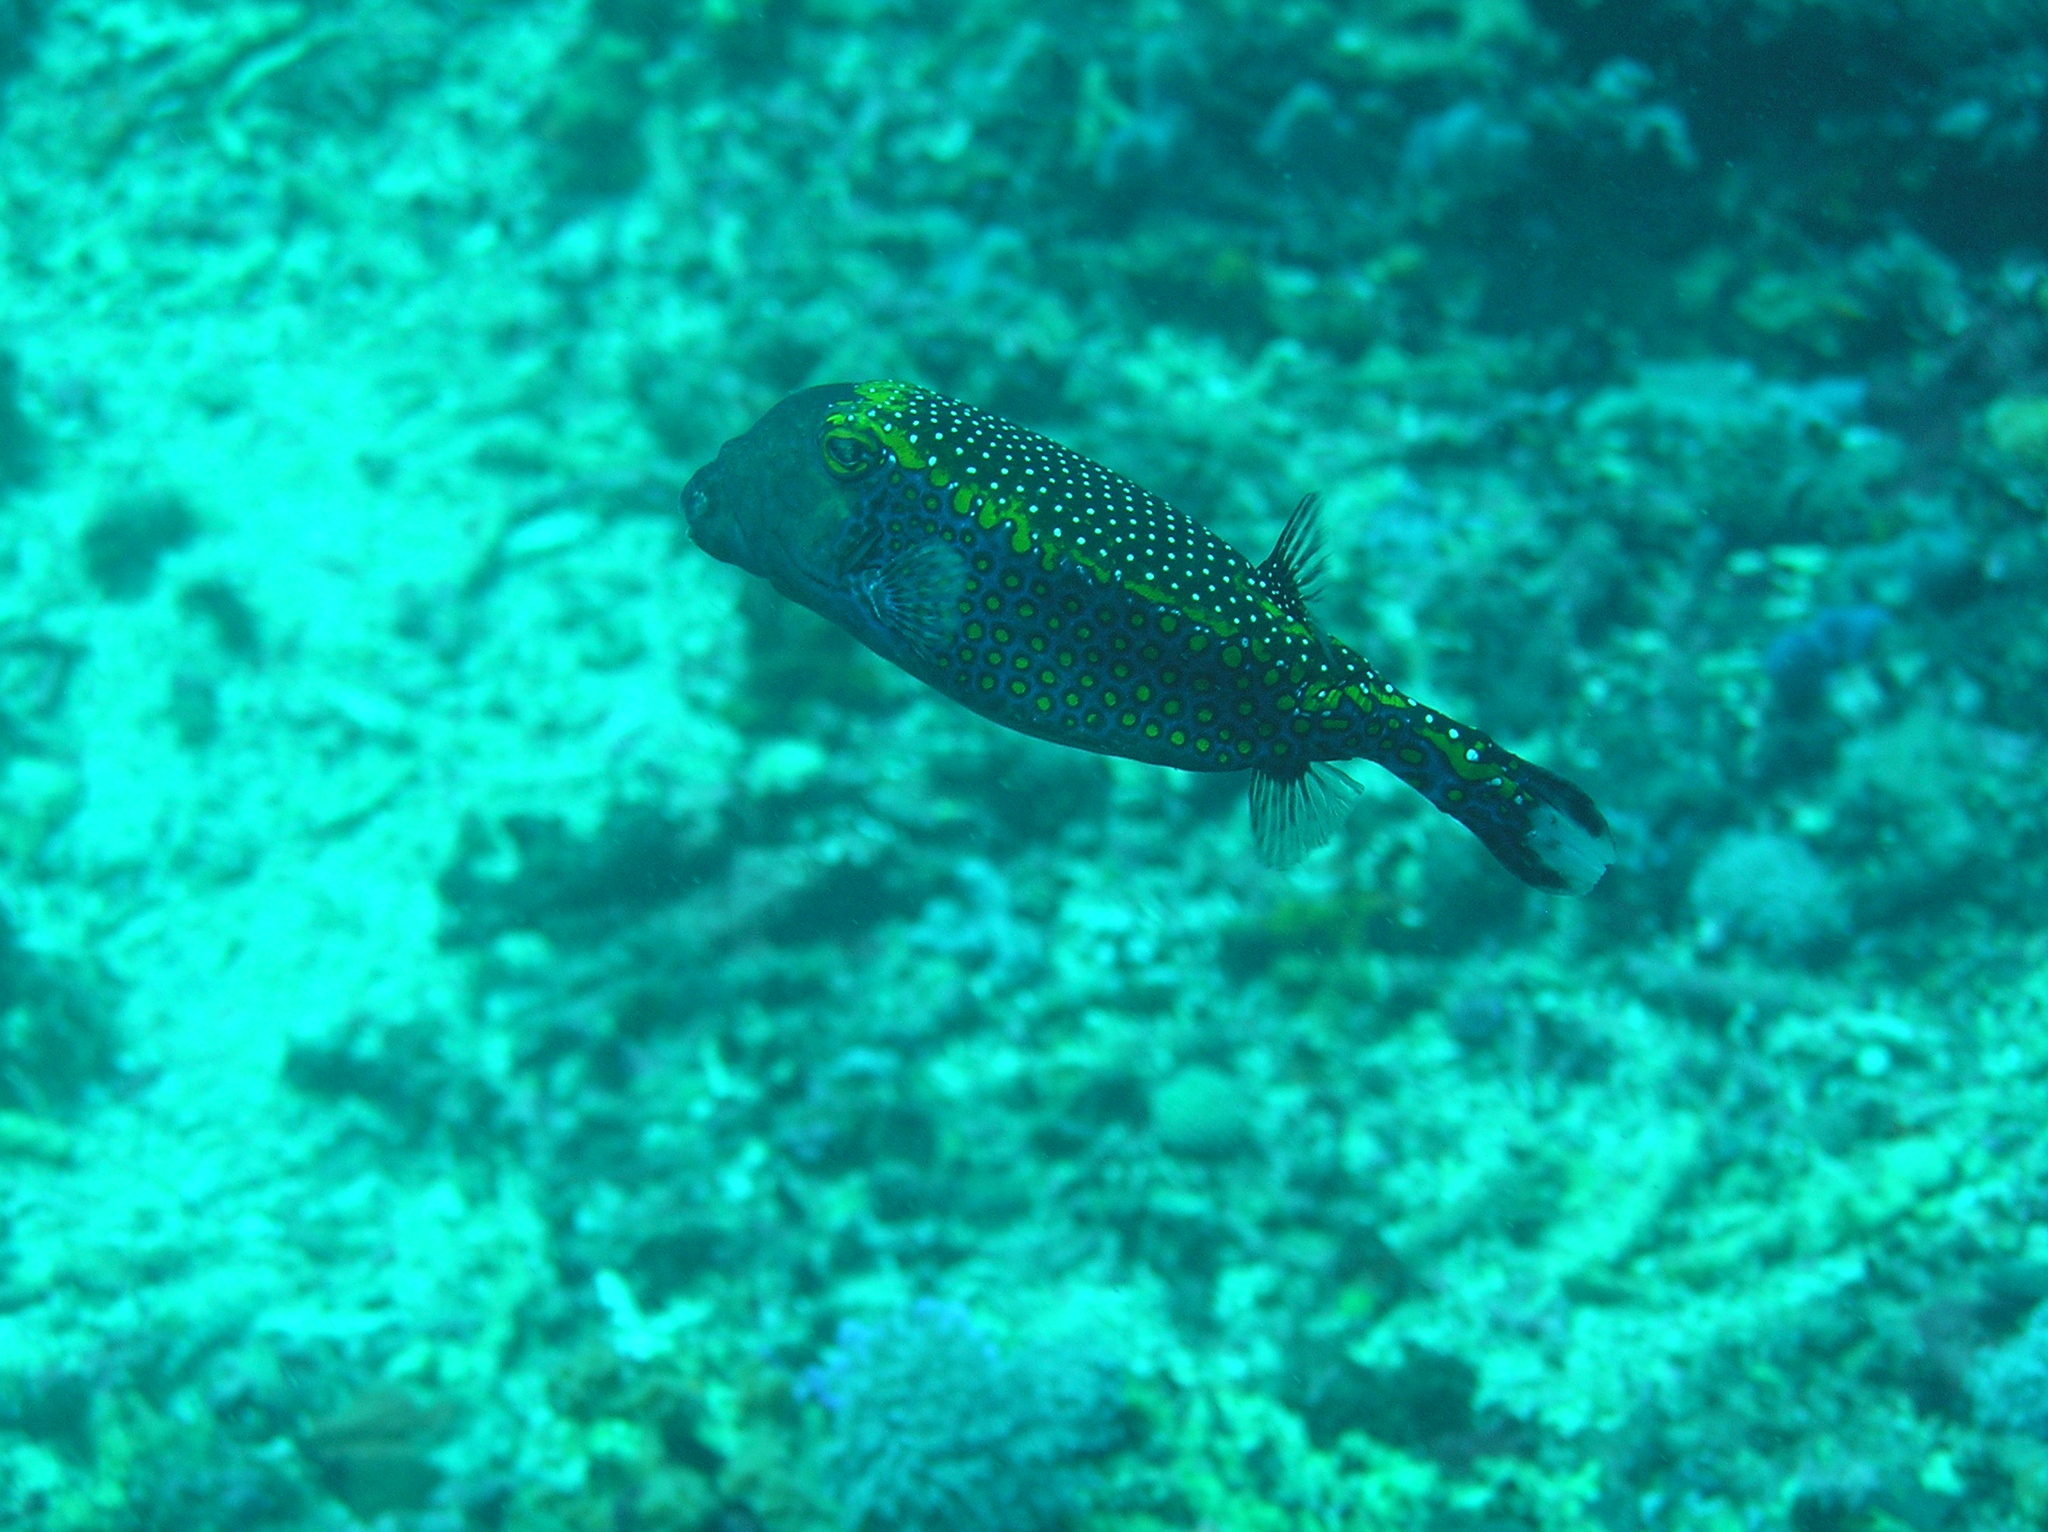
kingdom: Animalia
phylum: Chordata
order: Tetraodontiformes
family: Ostraciidae
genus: Ostracion
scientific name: Ostracion meleagris
